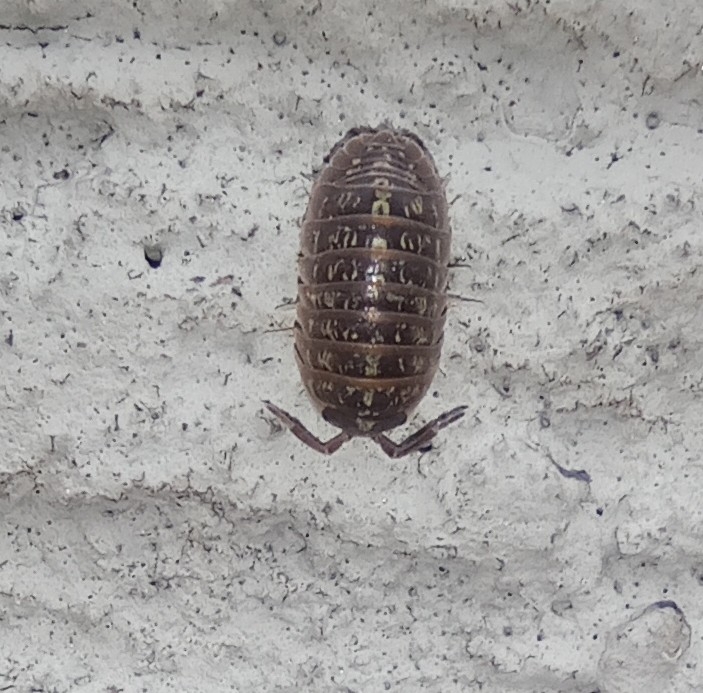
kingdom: Animalia
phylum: Arthropoda
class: Malacostraca
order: Isopoda
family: Armadillidiidae
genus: Armadillidium
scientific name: Armadillidium versicolor
